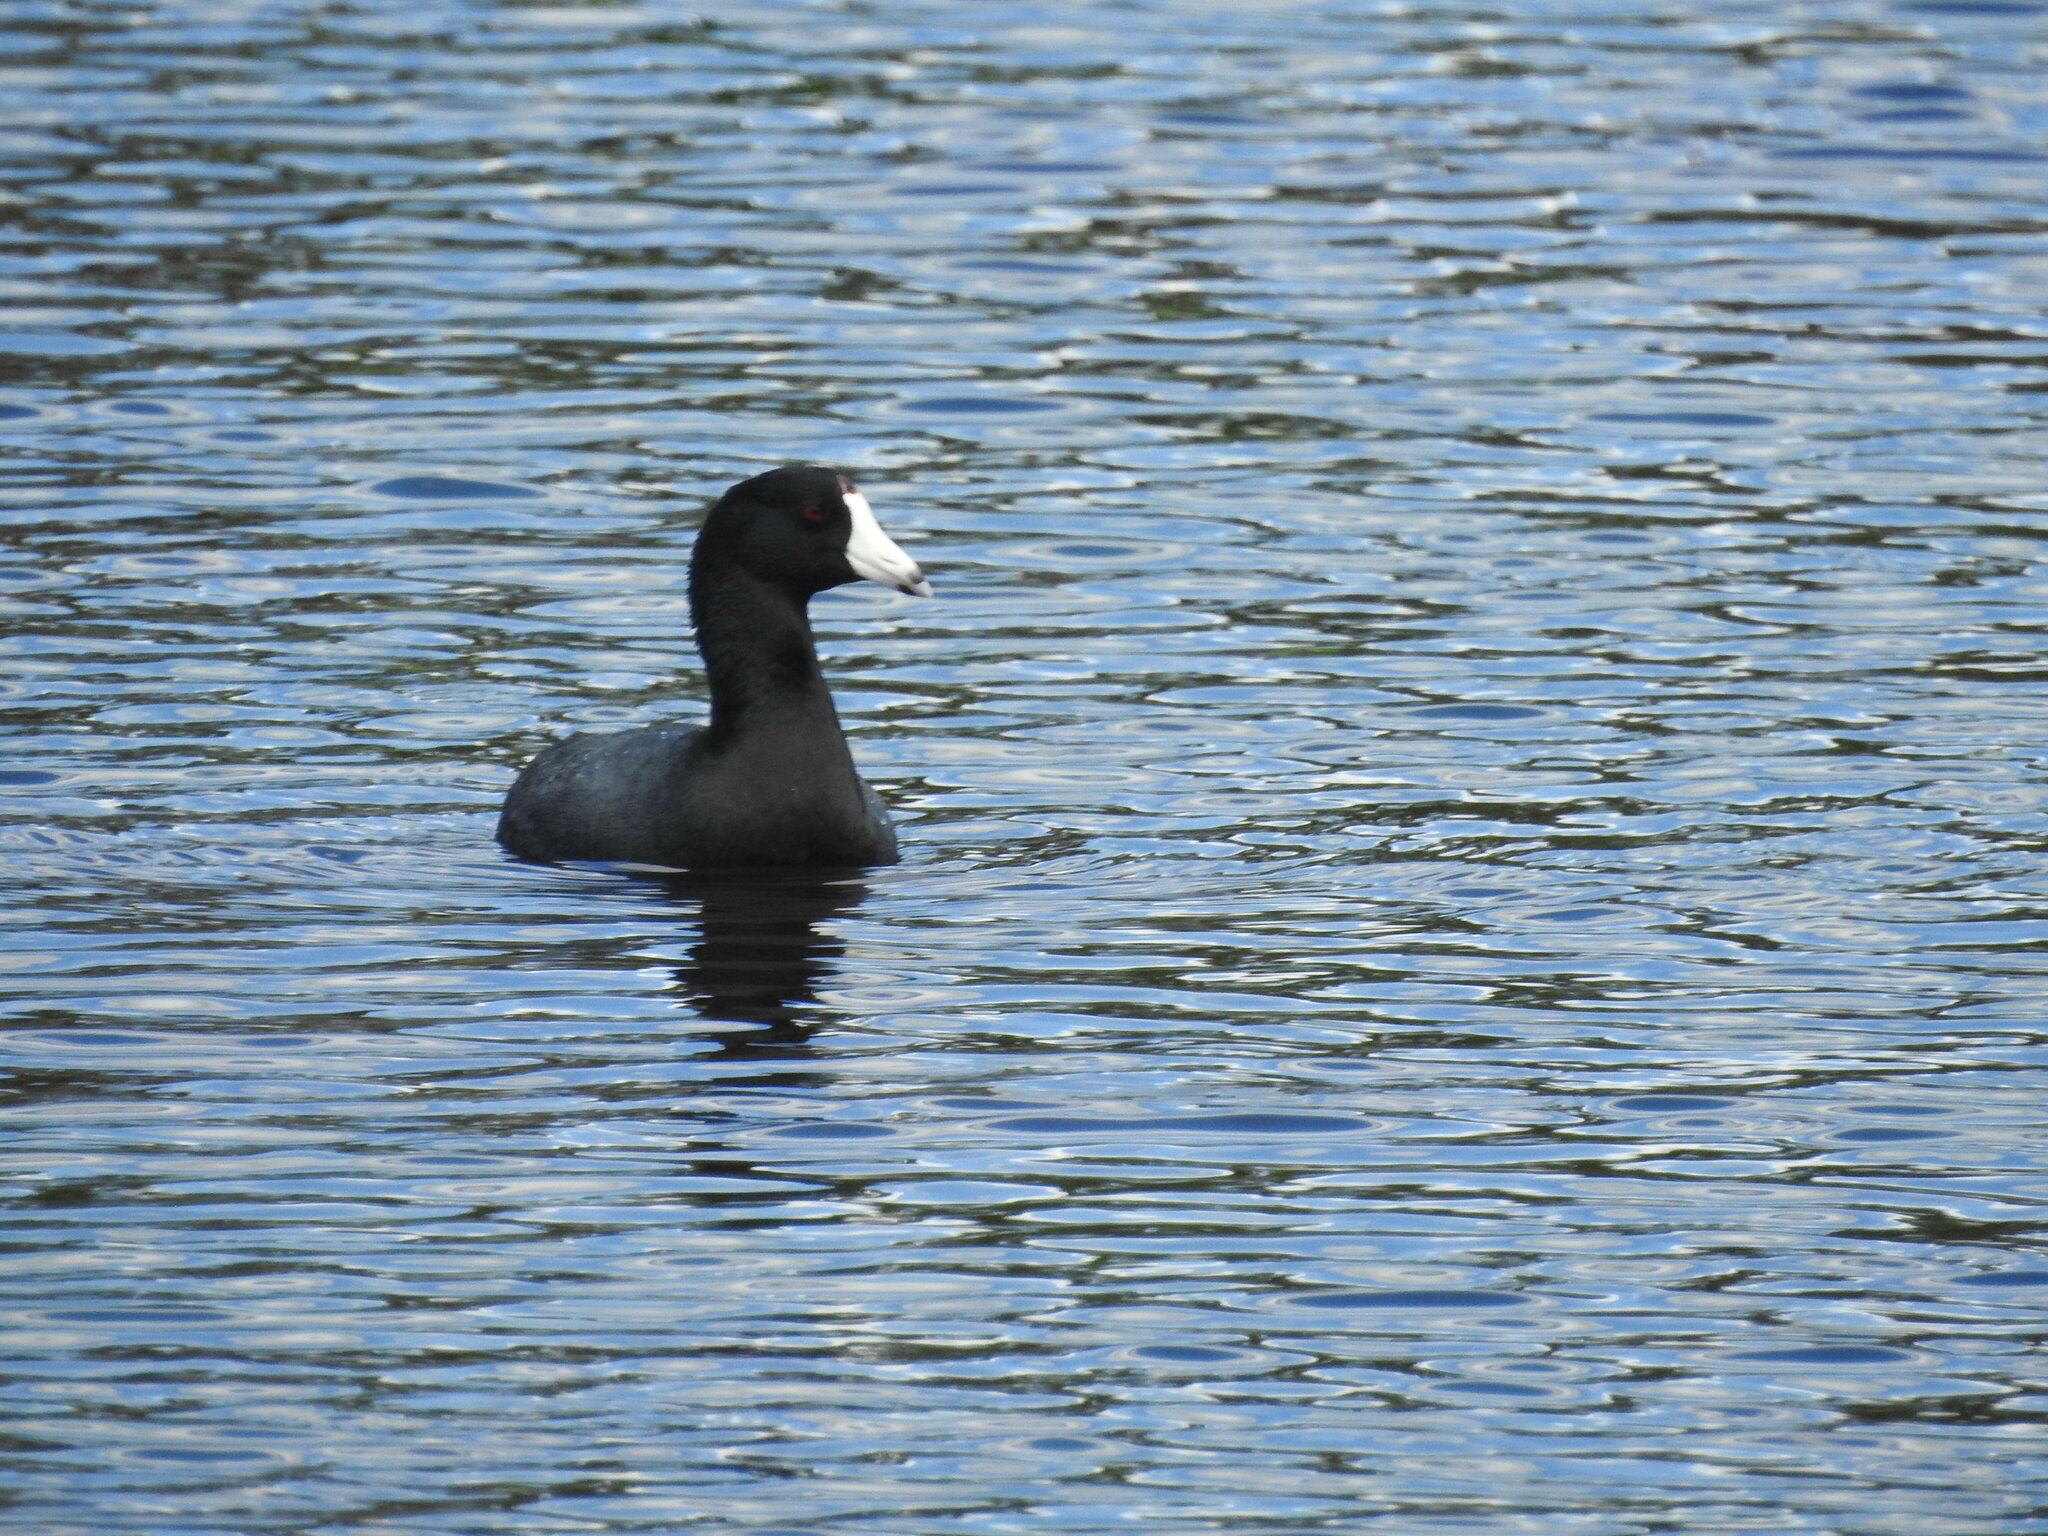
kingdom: Animalia
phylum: Chordata
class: Aves
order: Gruiformes
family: Rallidae
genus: Fulica
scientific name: Fulica americana
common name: American coot
